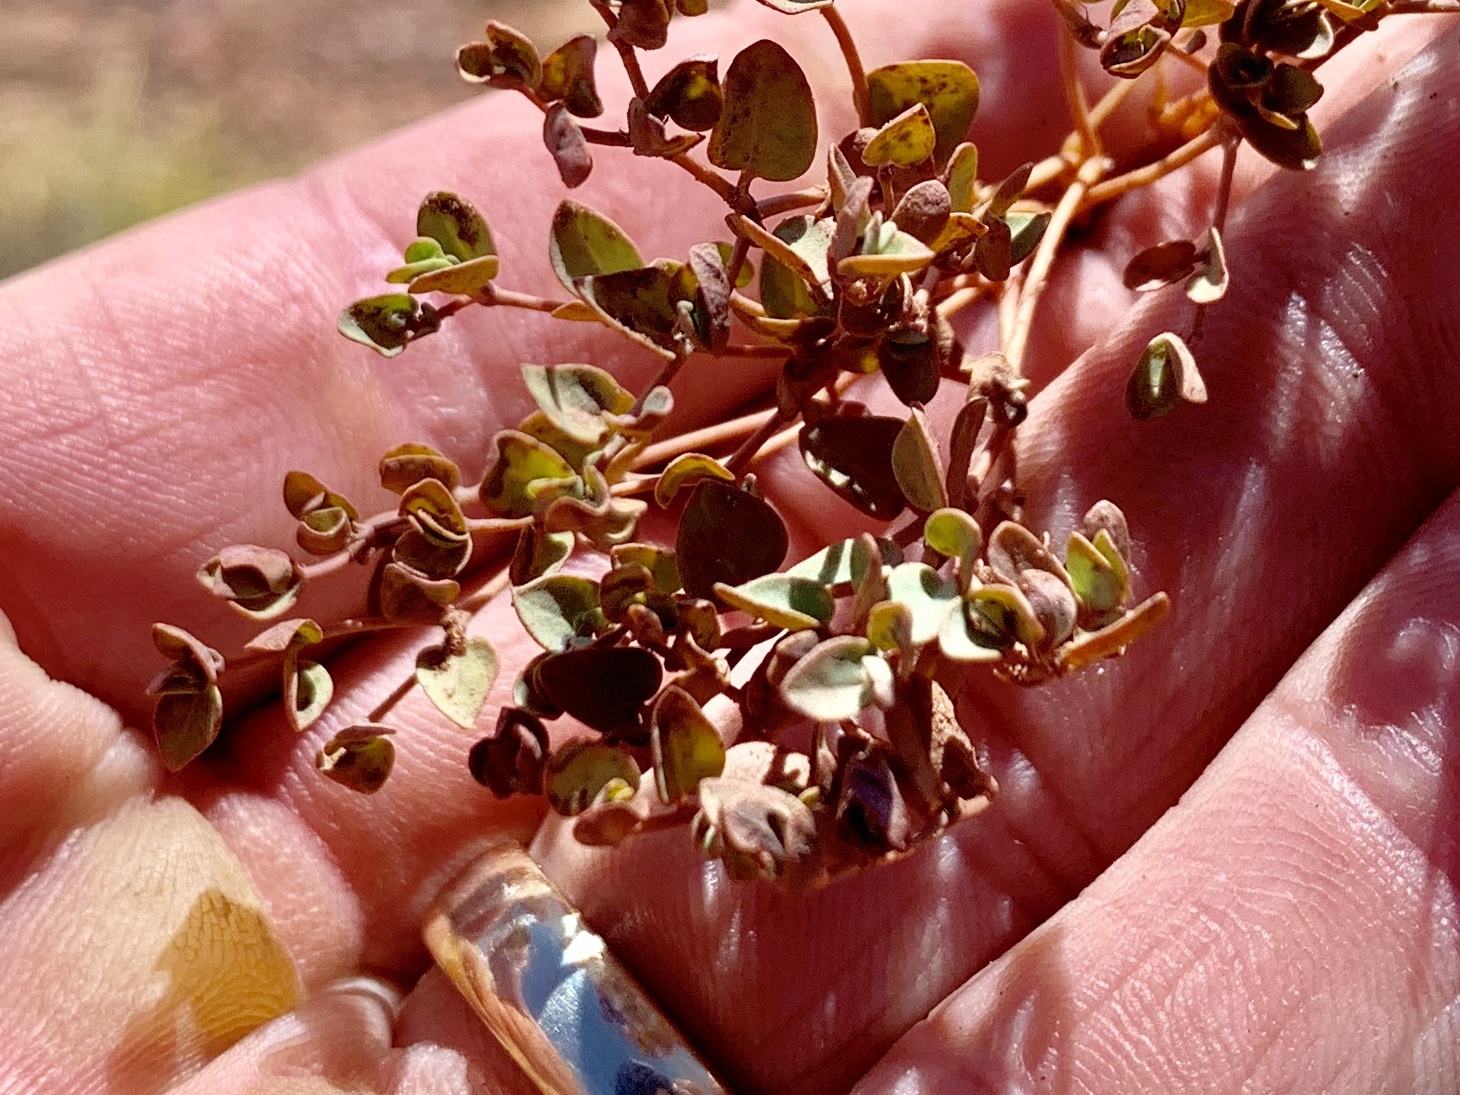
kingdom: Plantae
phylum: Tracheophyta
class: Magnoliopsida
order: Malpighiales
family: Euphorbiaceae
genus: Euphorbia
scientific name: Euphorbia fendleri
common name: Fendler's euphorbia
